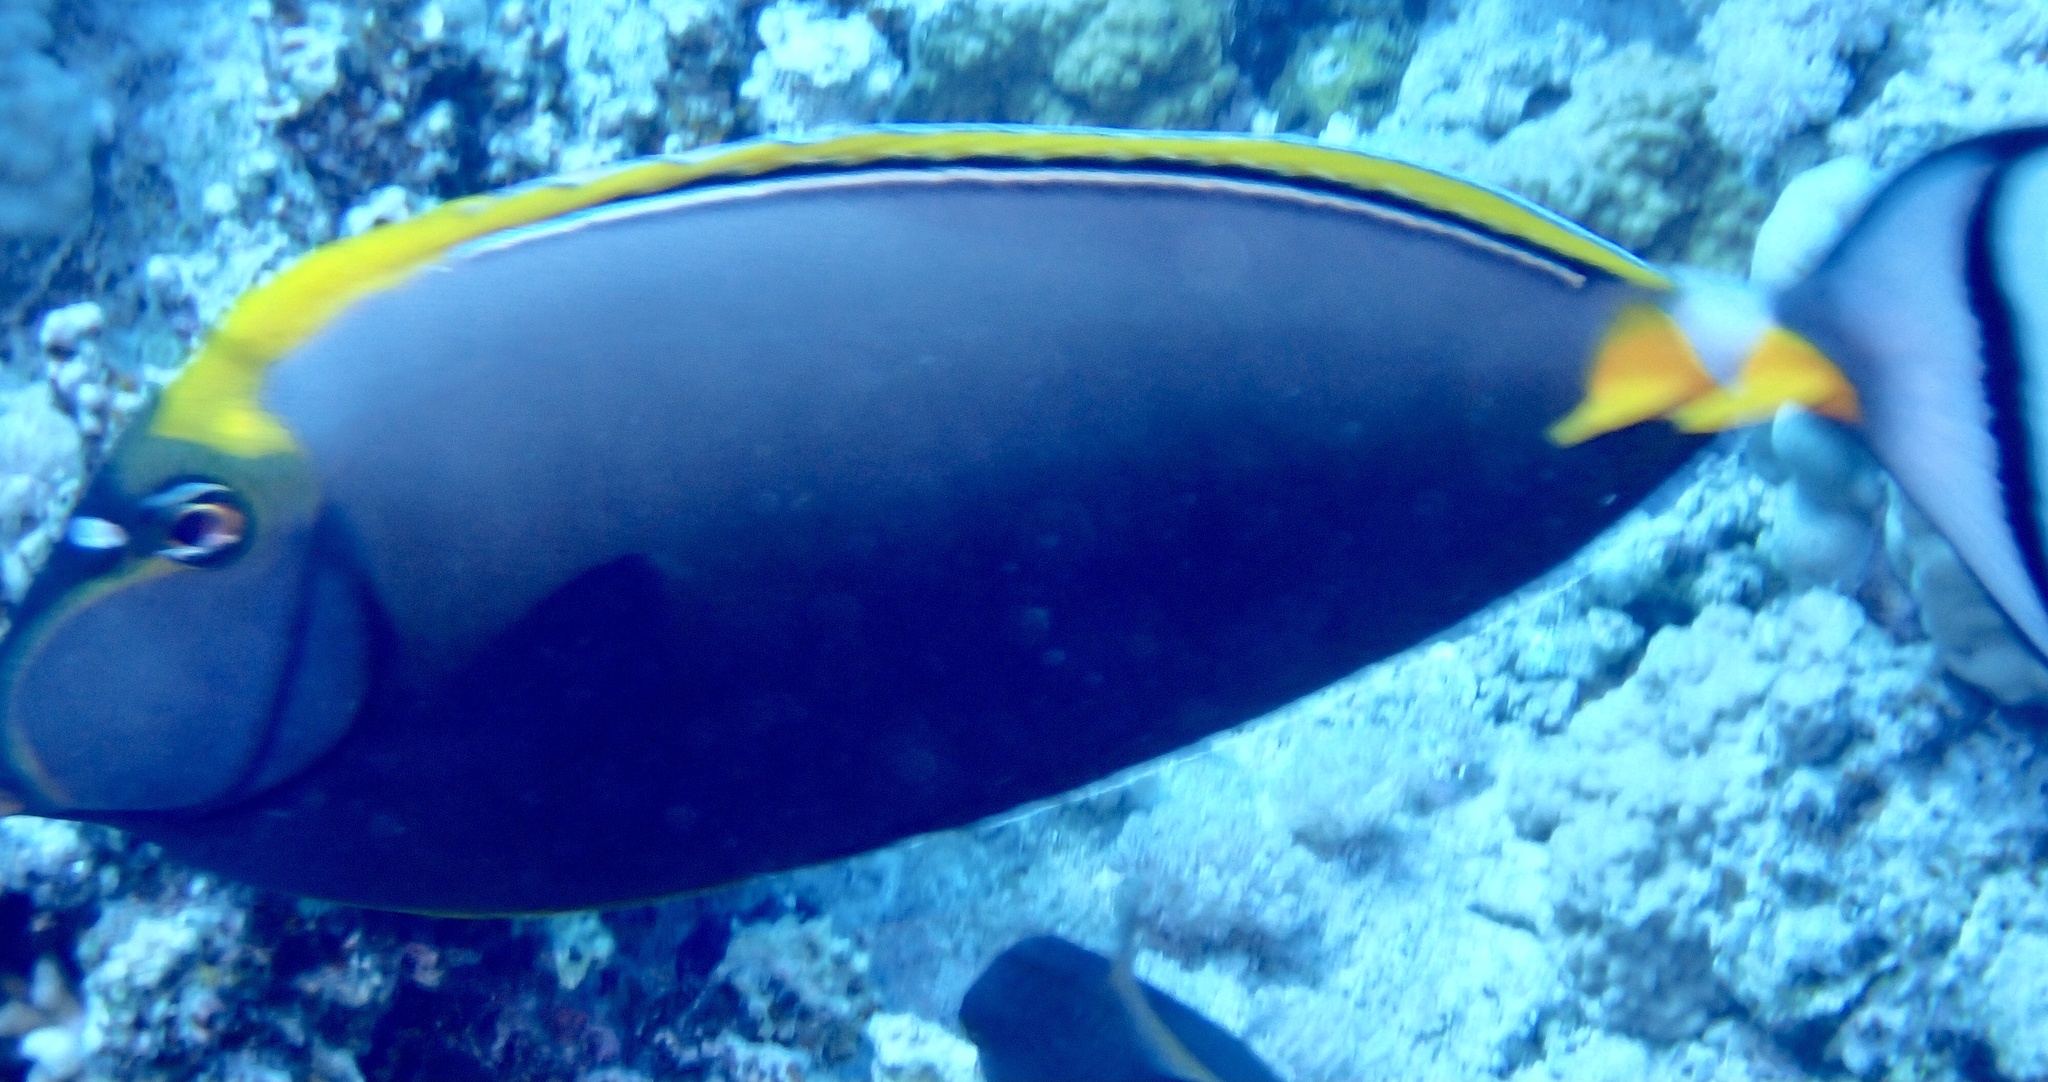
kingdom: Animalia
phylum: Chordata
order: Perciformes
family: Acanthuridae
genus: Naso
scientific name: Naso elegans
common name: Orangespine unicornfish
